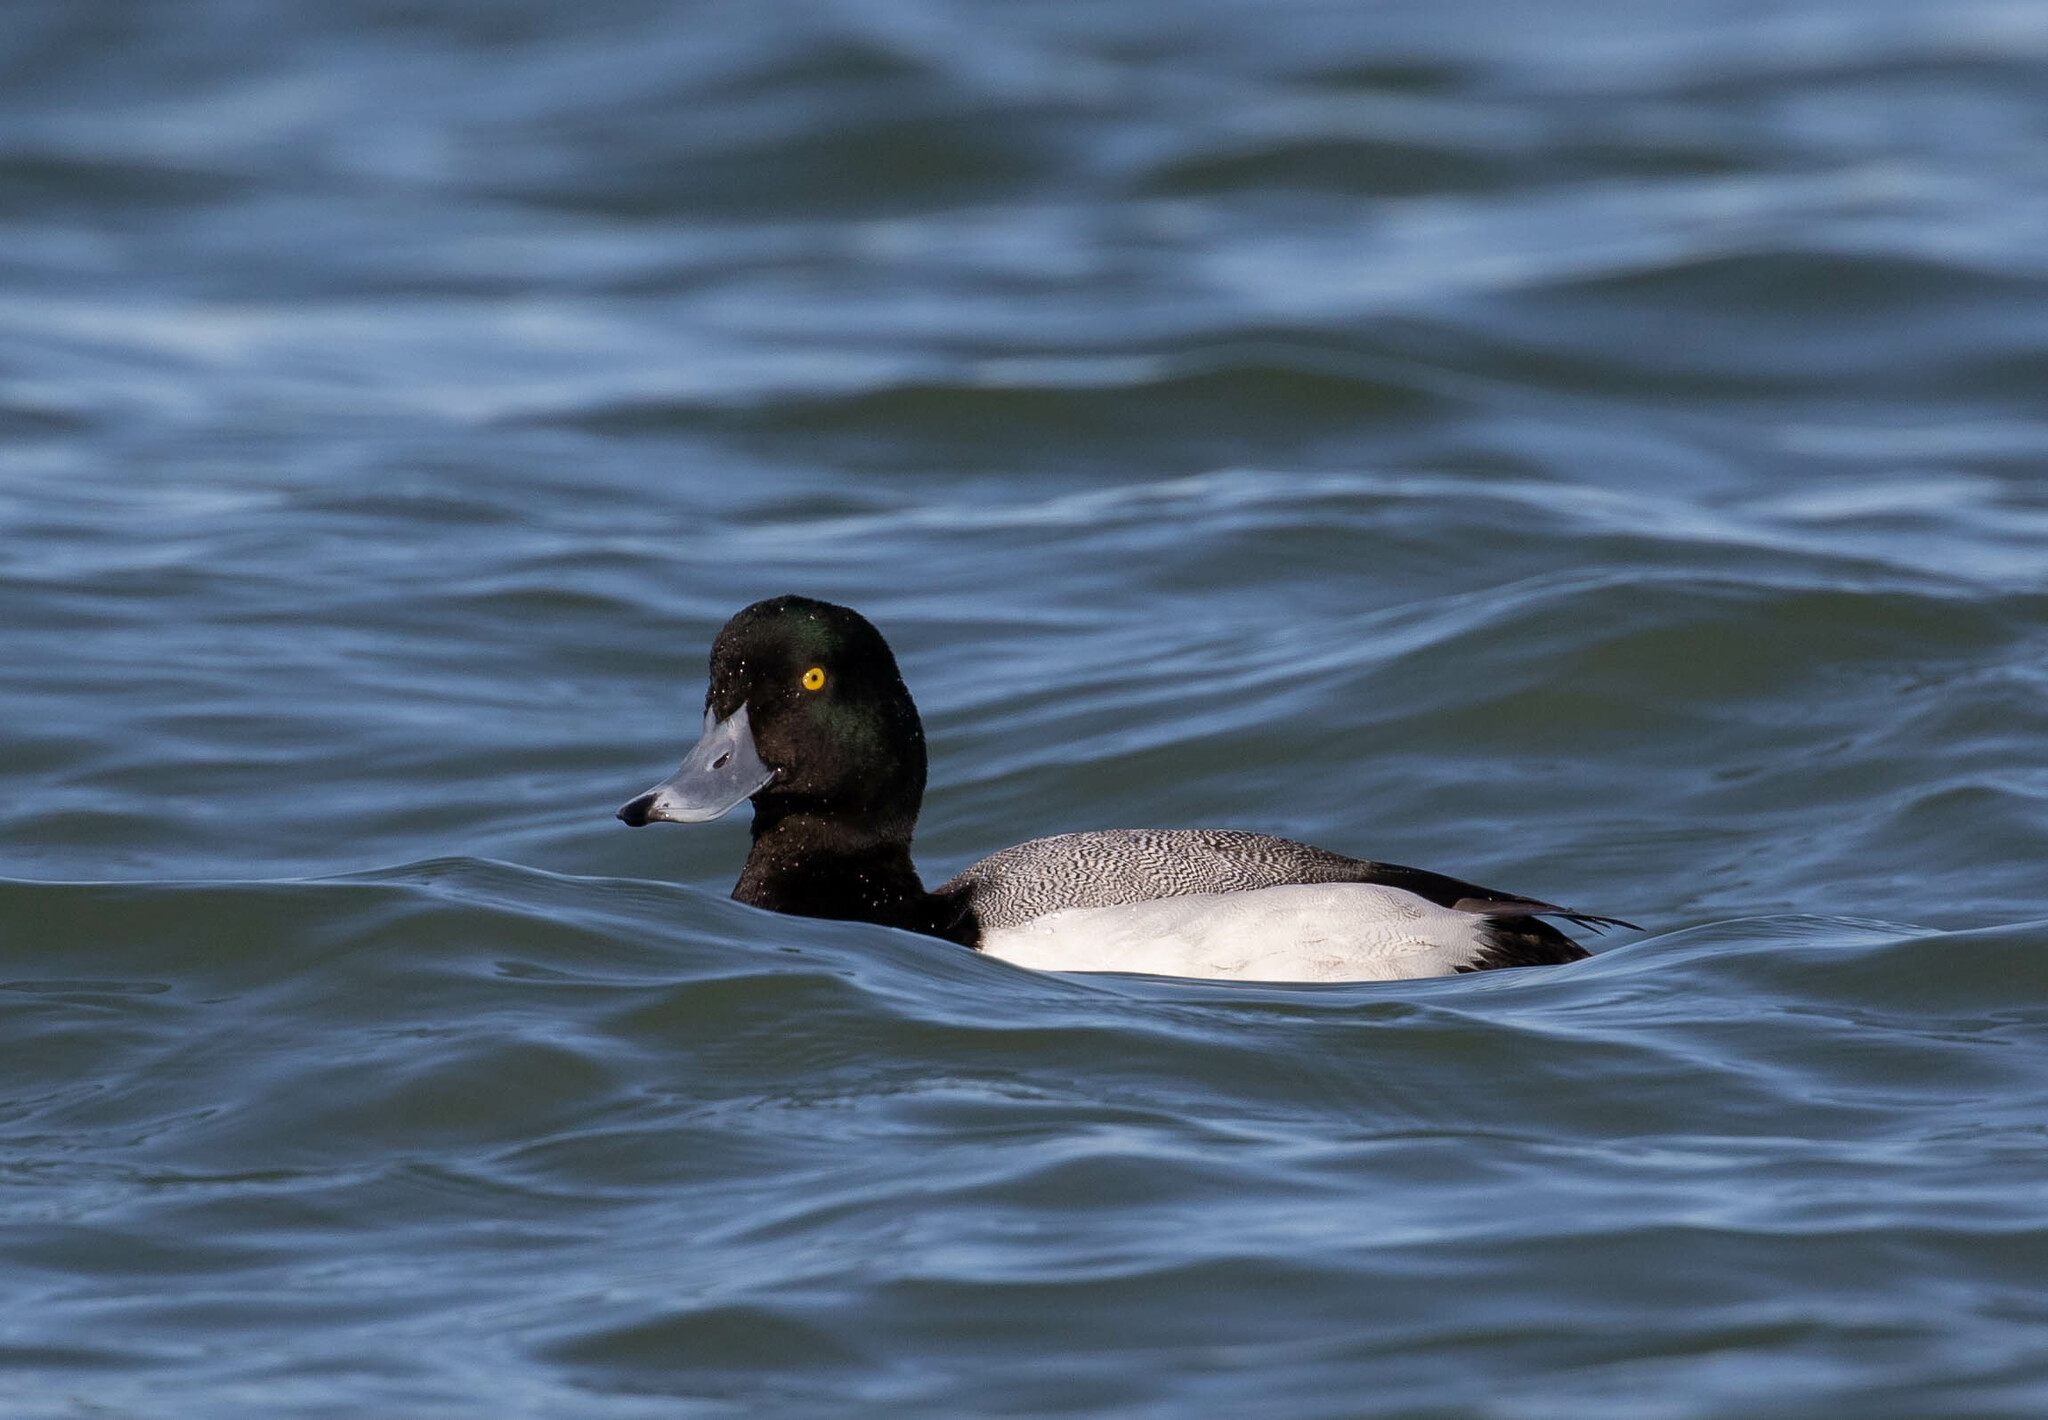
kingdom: Animalia
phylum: Chordata
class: Aves
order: Anseriformes
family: Anatidae
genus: Aythya
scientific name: Aythya marila
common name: Greater scaup
